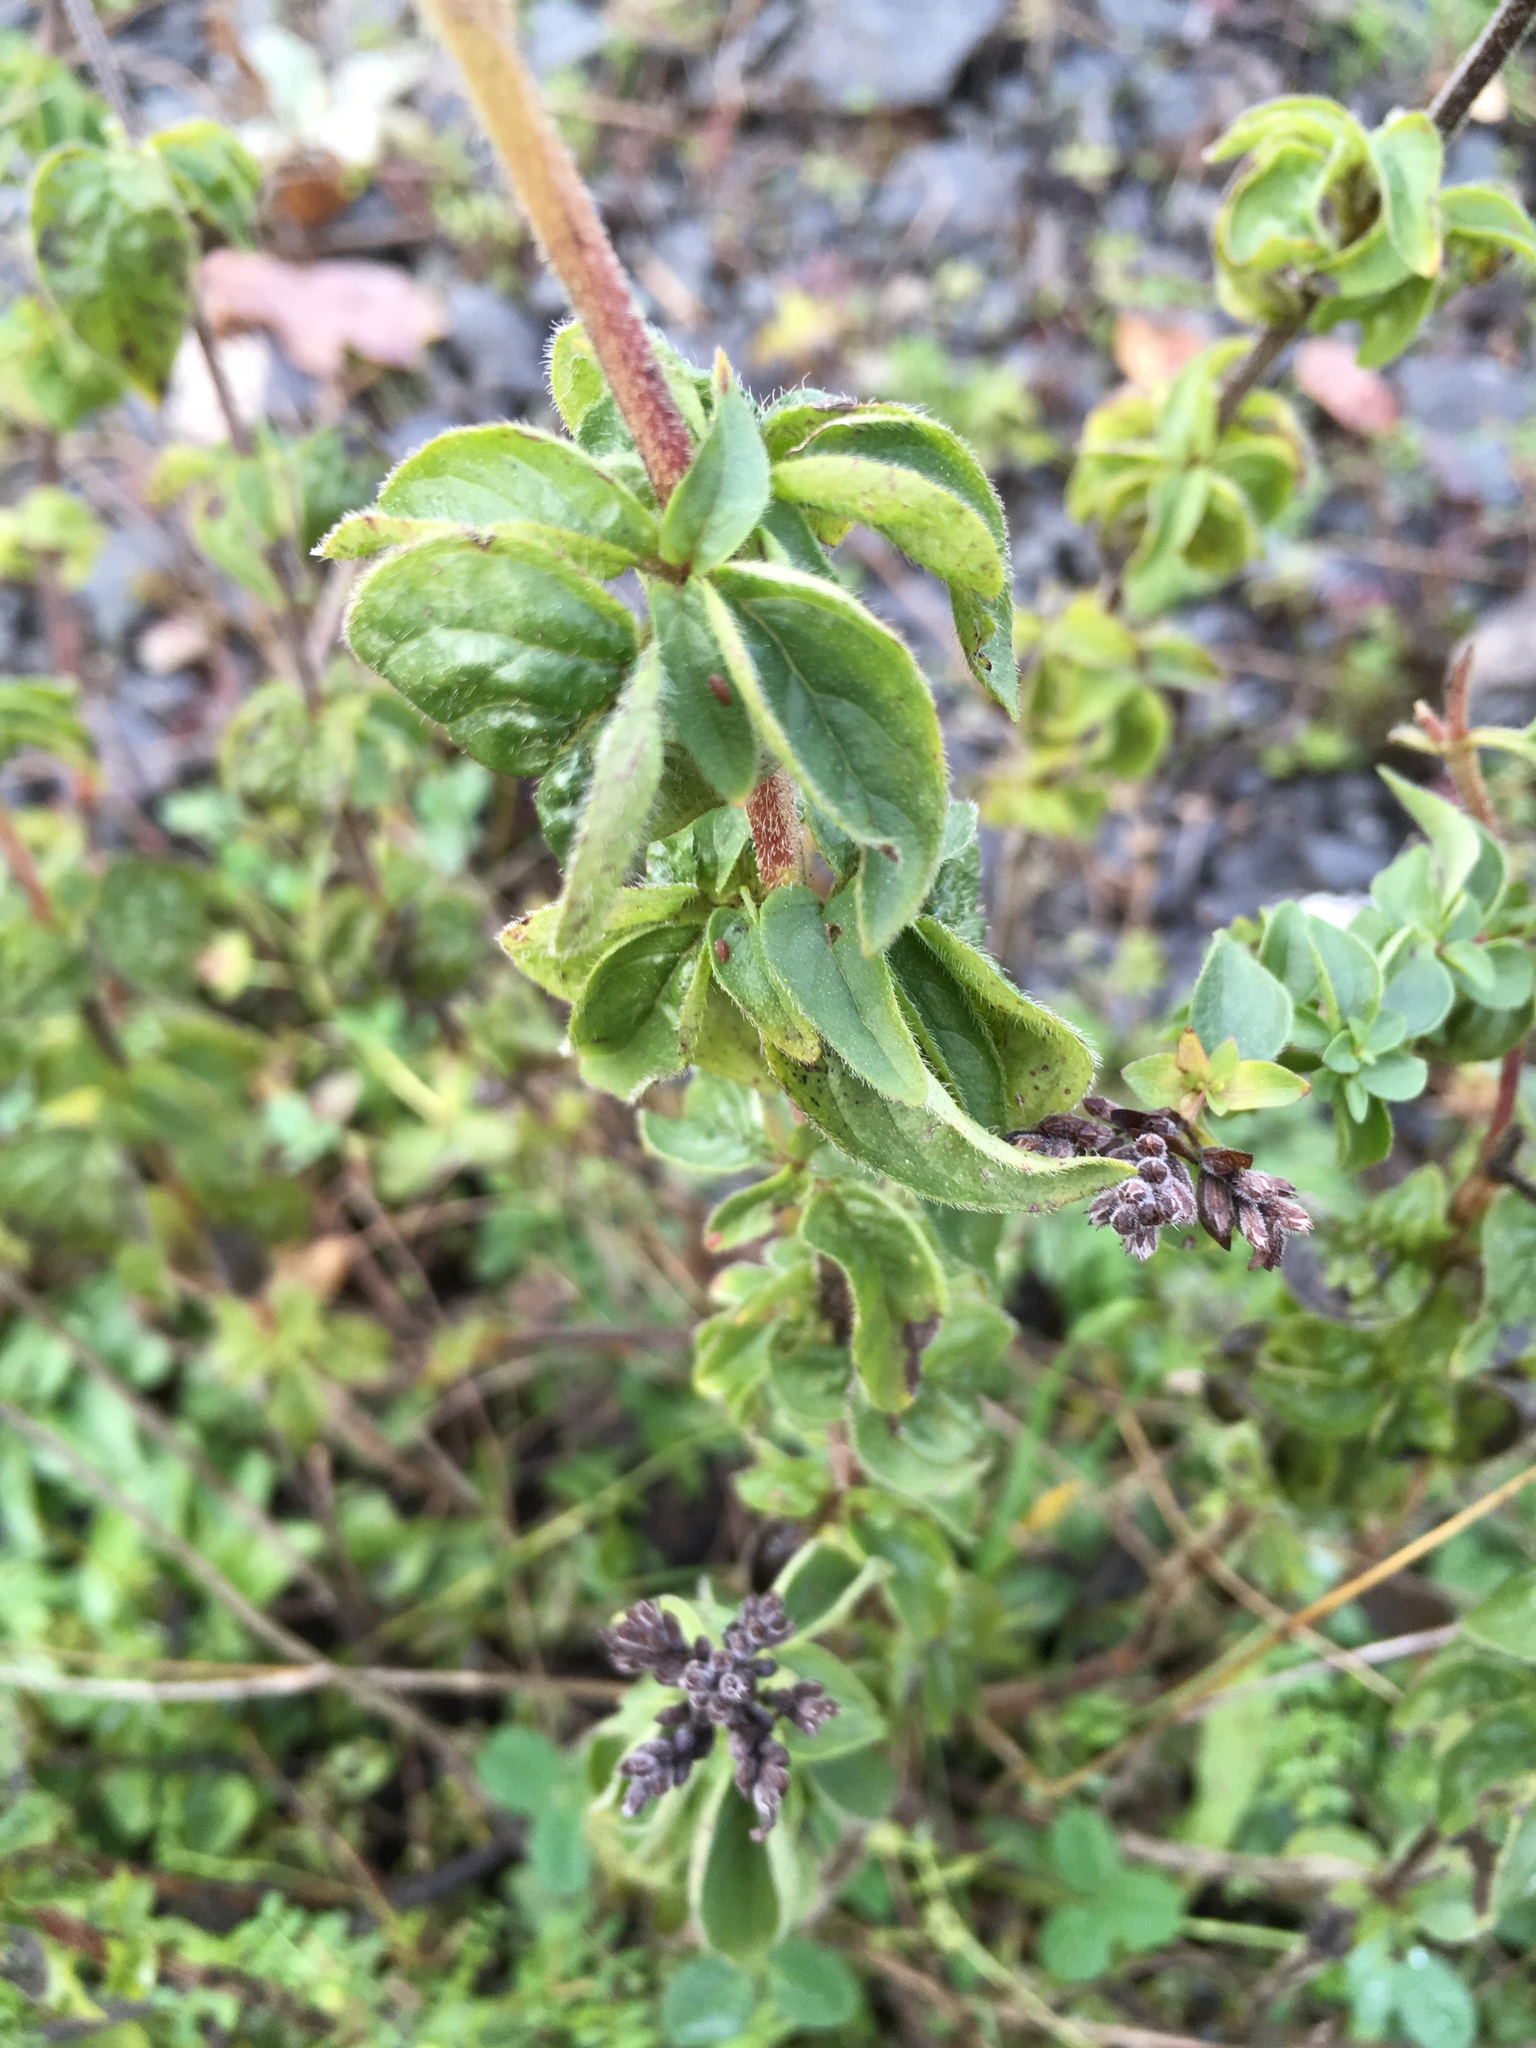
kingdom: Plantae
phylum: Tracheophyta
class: Magnoliopsida
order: Lamiales
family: Lamiaceae
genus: Origanum
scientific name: Origanum vulgare
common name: Wild marjoram
